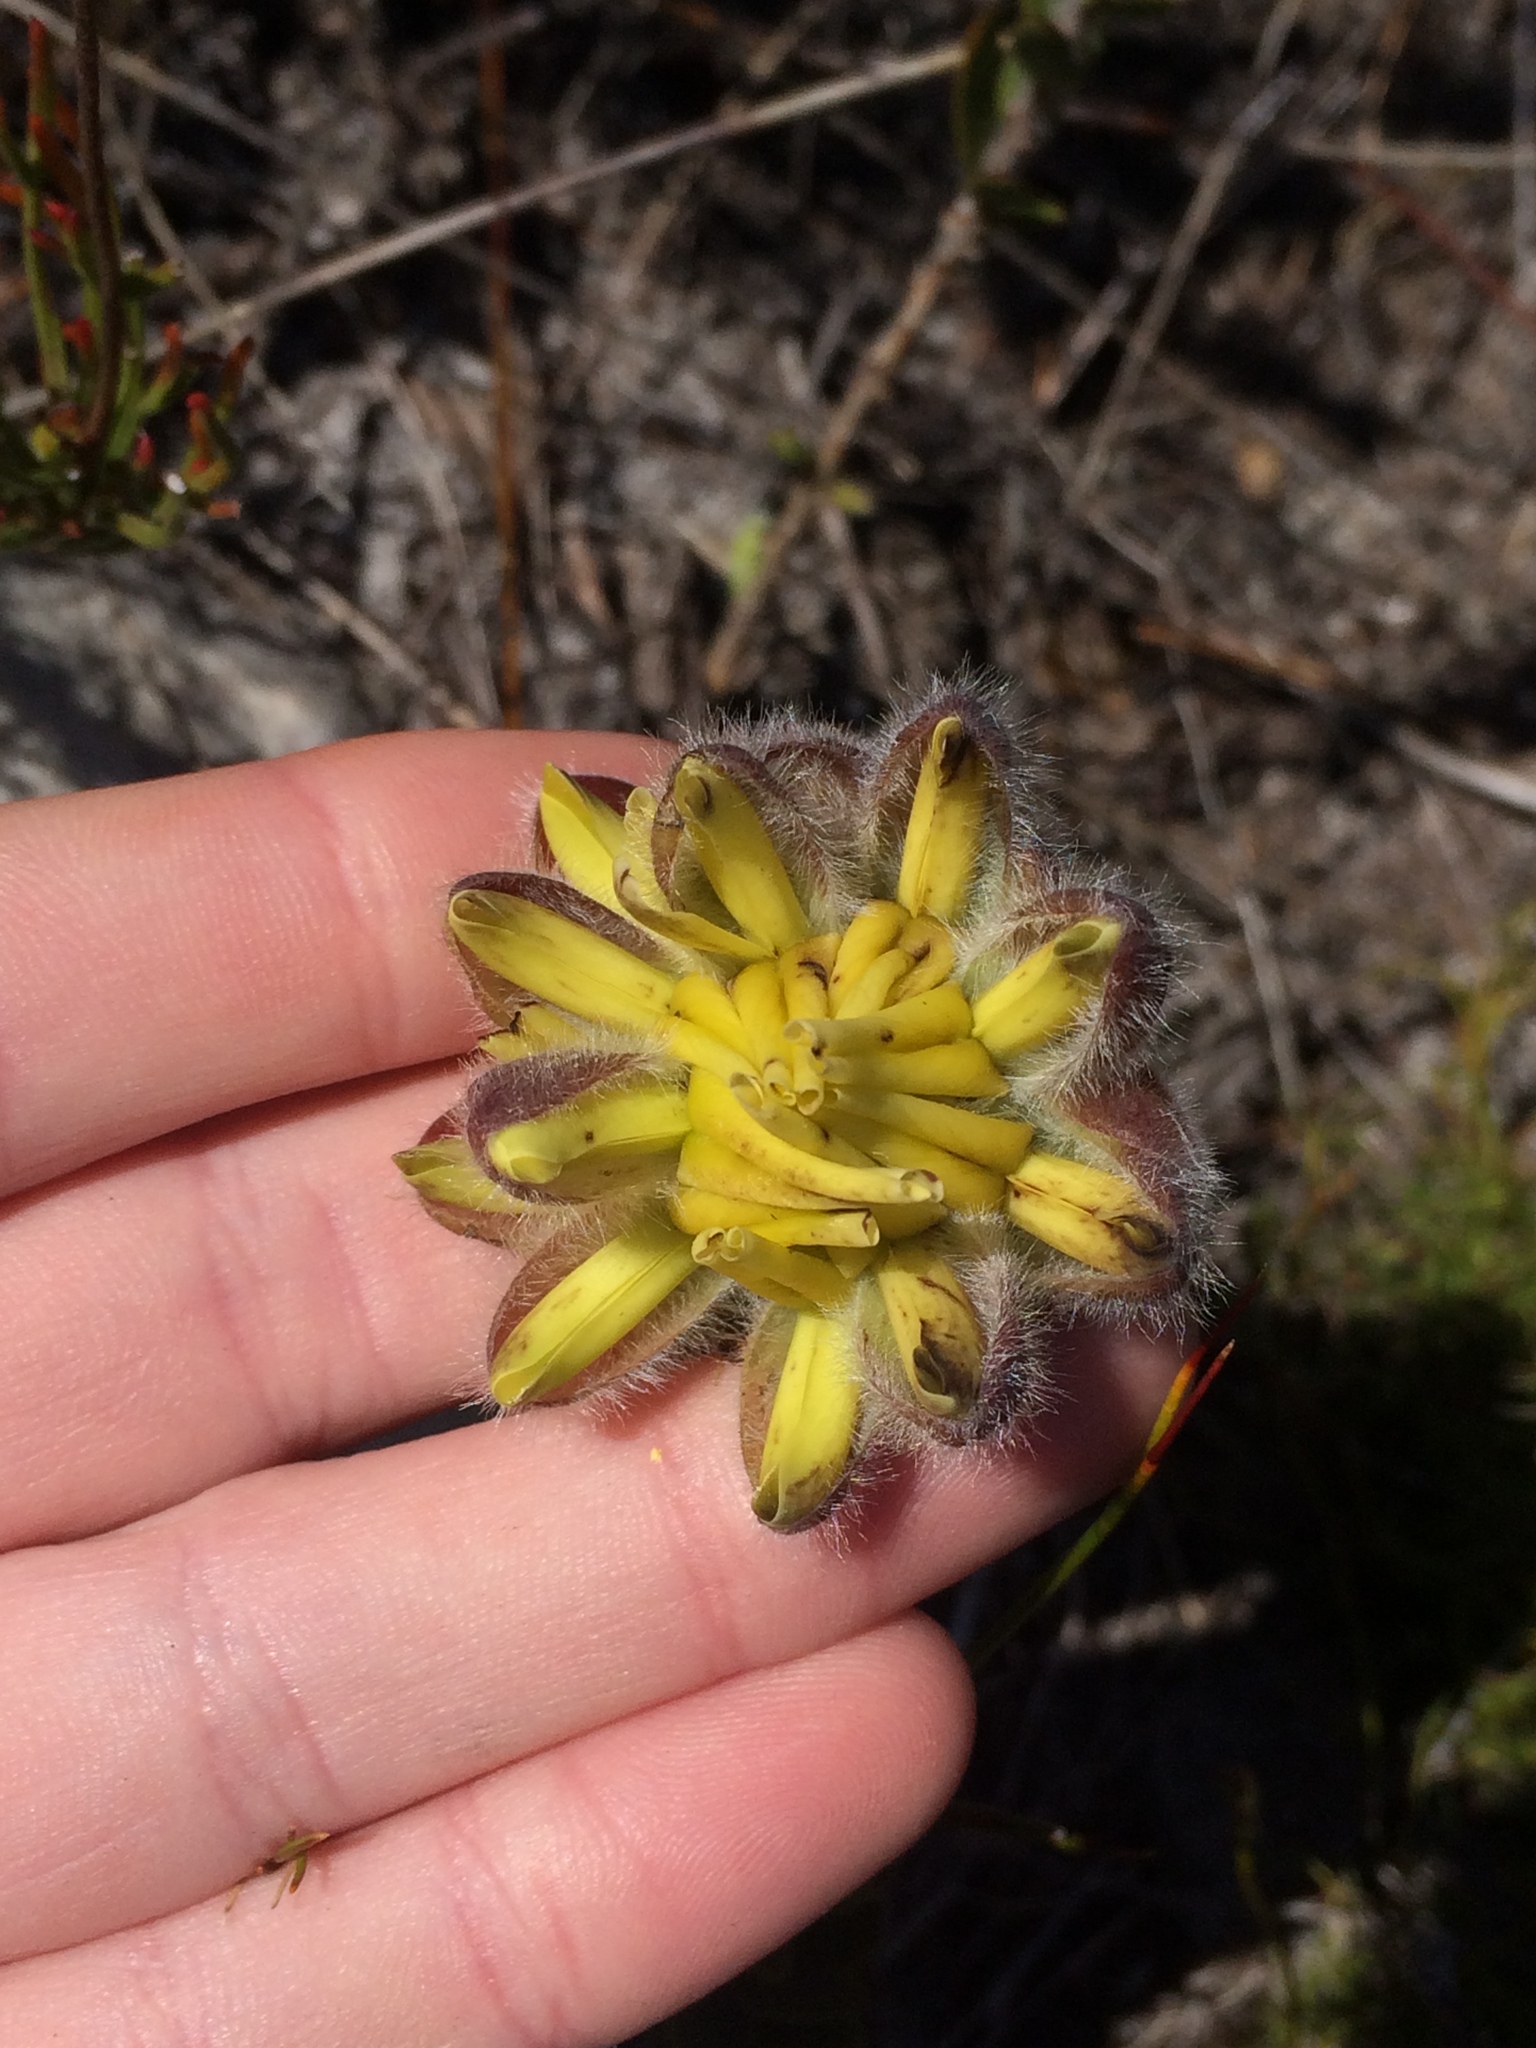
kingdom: Plantae
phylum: Tracheophyta
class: Magnoliopsida
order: Fabales
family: Fabaceae
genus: Liparia
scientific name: Liparia parva
